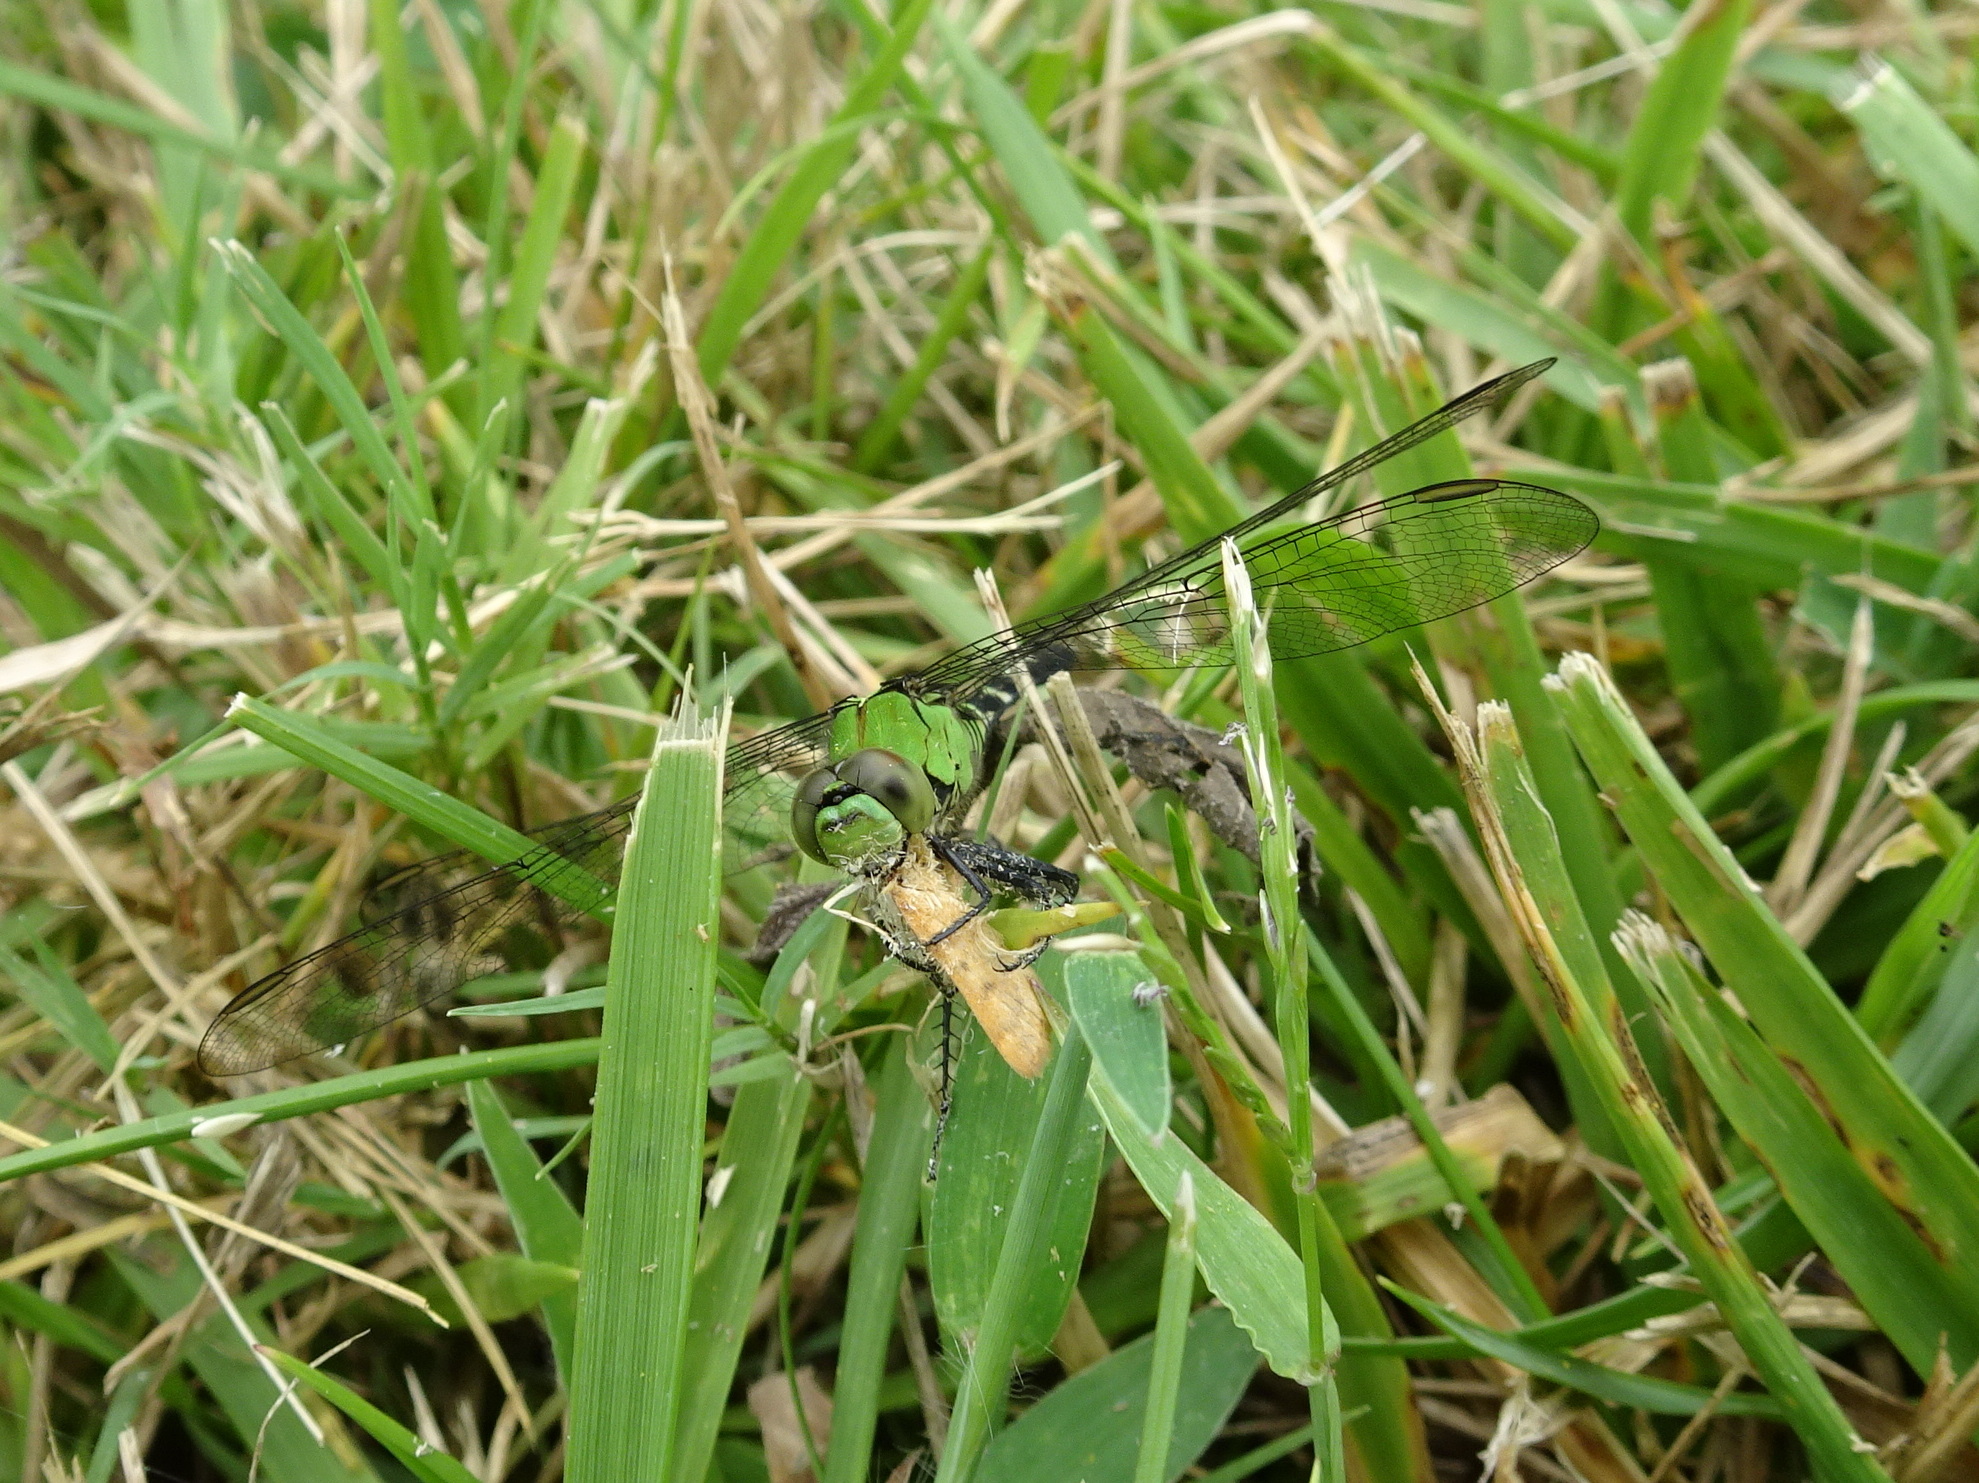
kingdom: Animalia
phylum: Arthropoda
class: Insecta
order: Odonata
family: Libellulidae
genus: Erythemis
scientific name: Erythemis simplicicollis
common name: Eastern pondhawk
